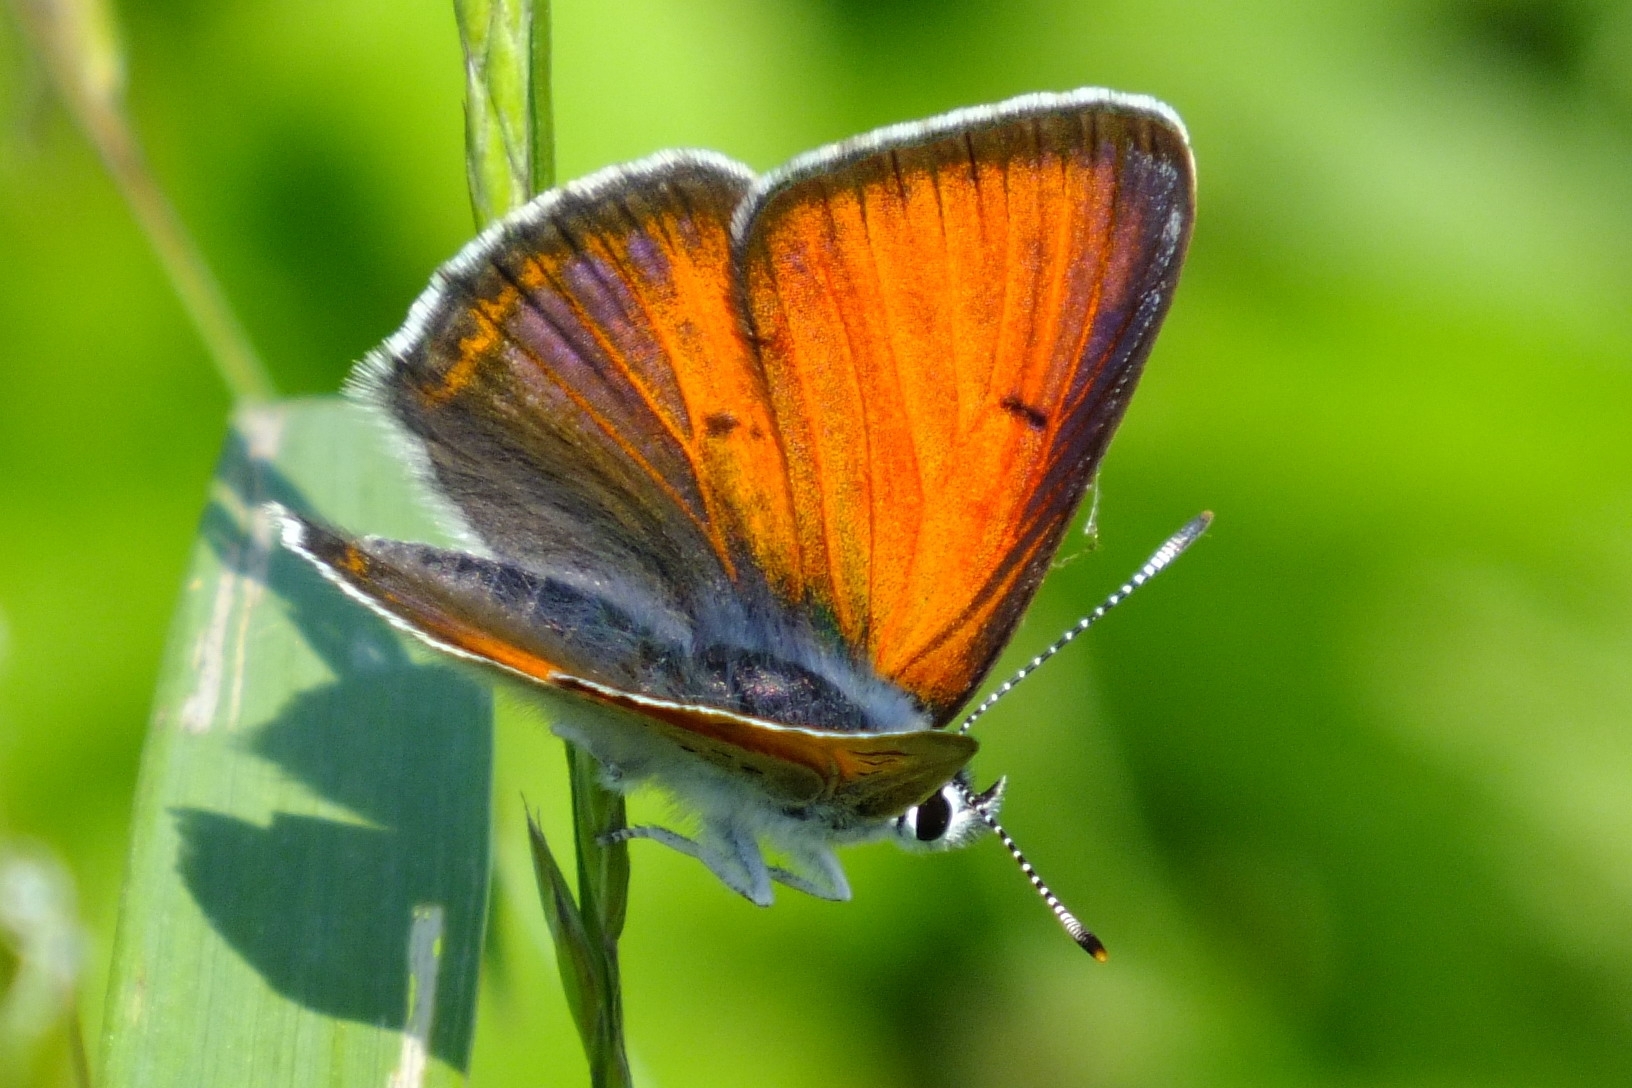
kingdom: Animalia
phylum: Arthropoda
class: Insecta
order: Lepidoptera
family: Lycaenidae
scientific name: Lycaenidae
